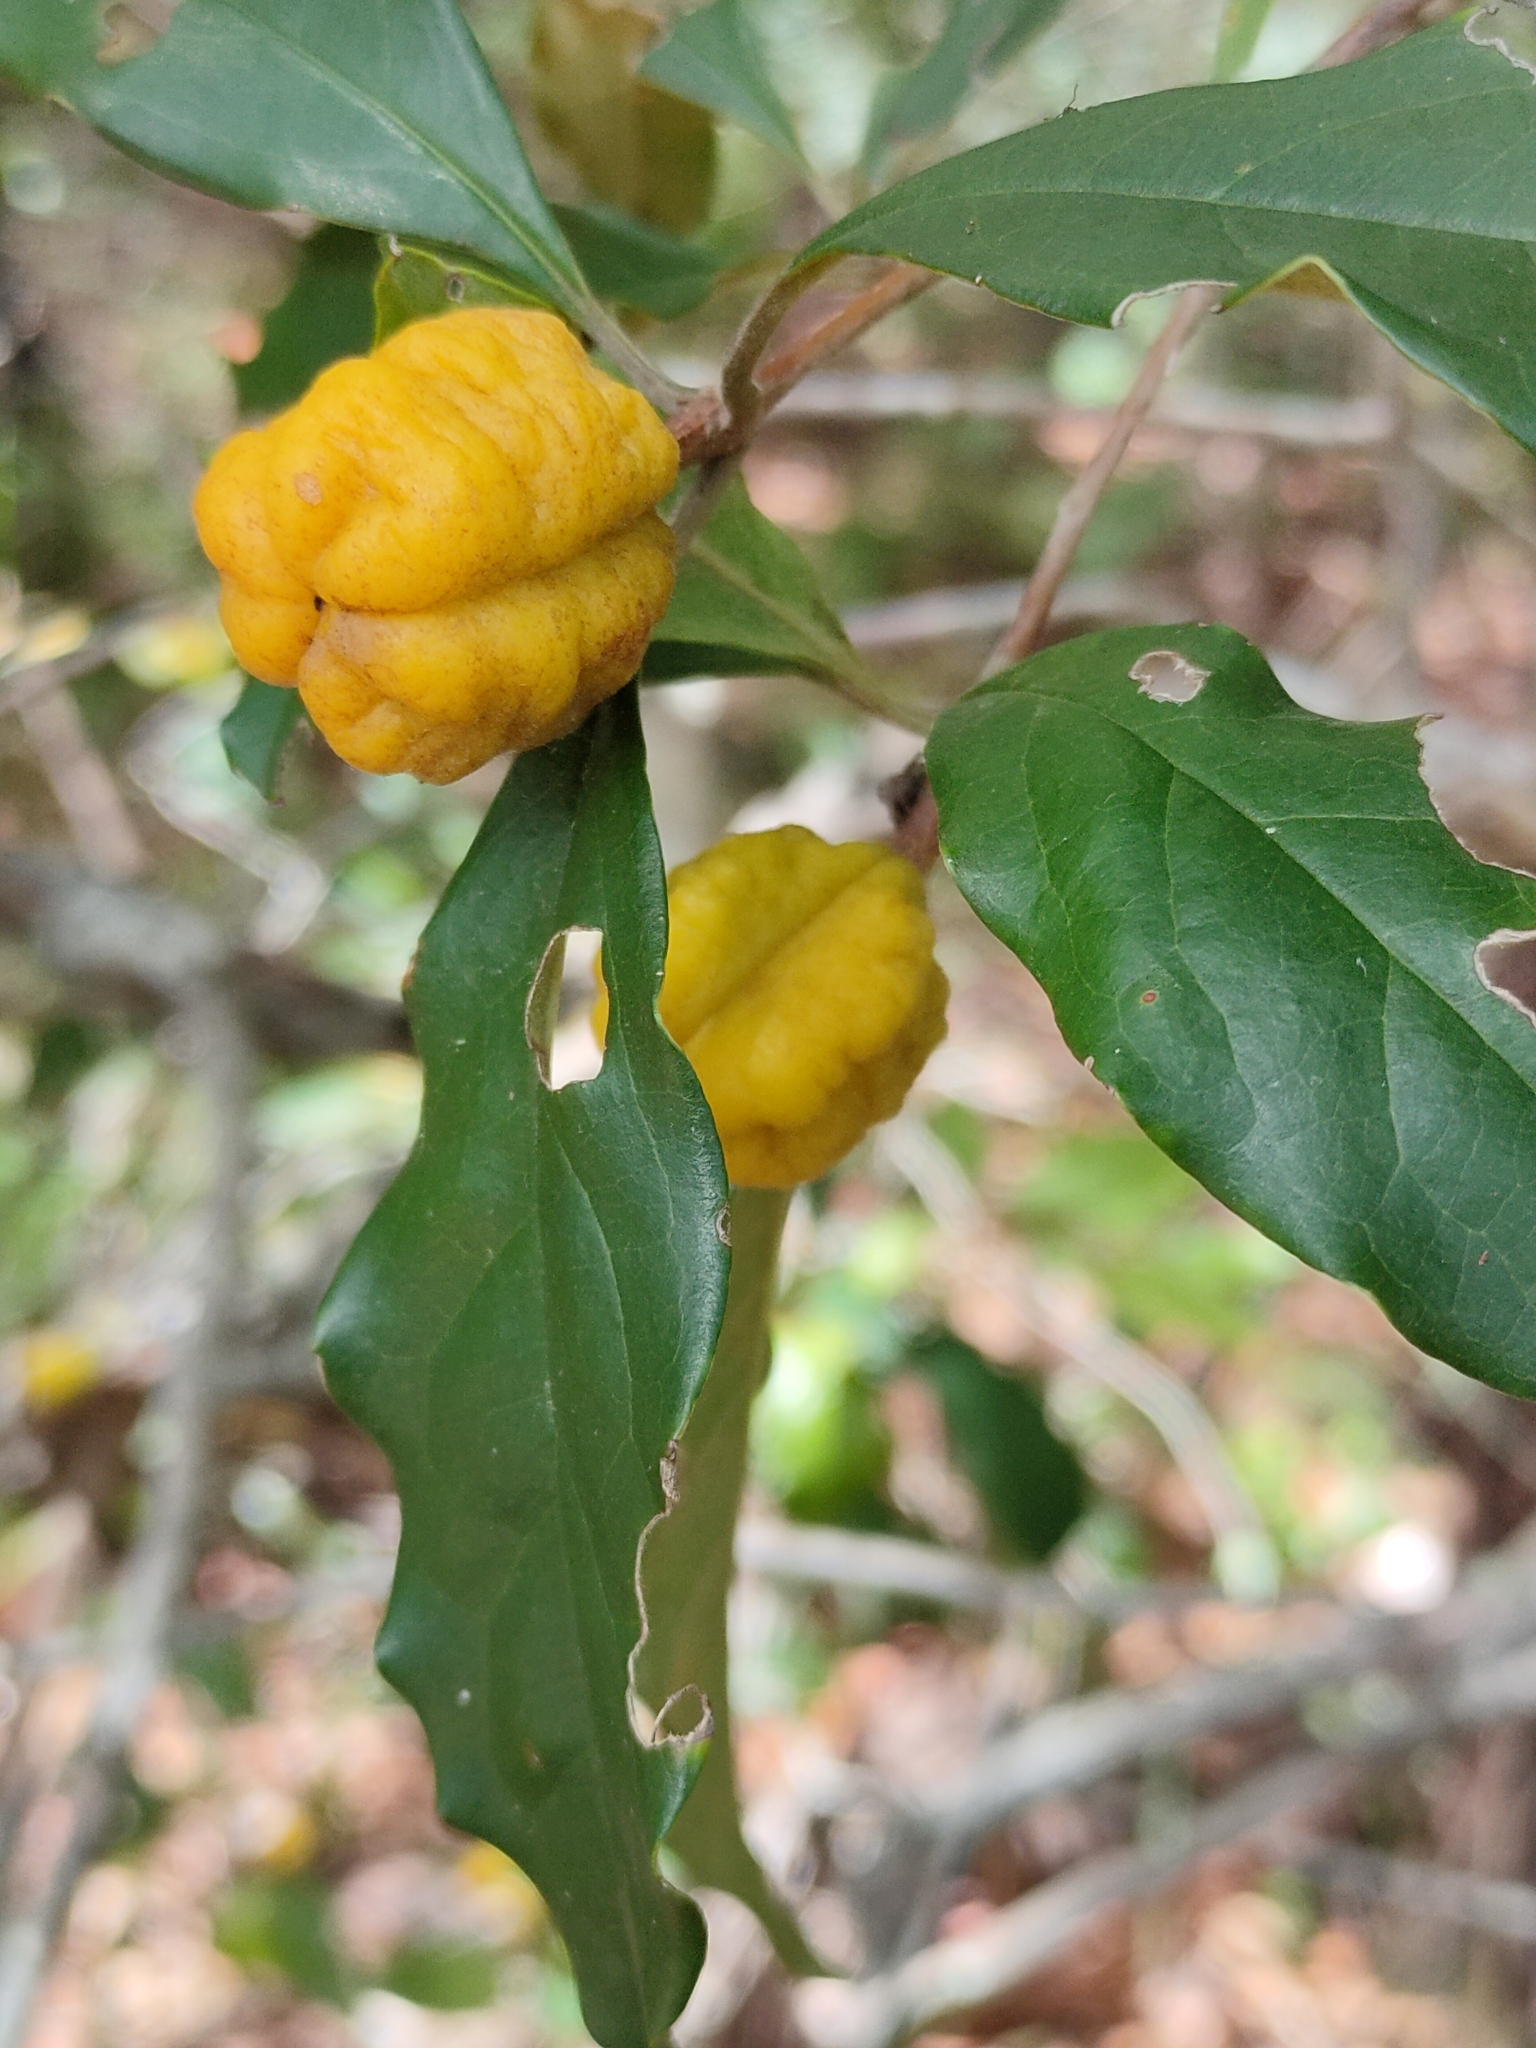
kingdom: Plantae
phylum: Tracheophyta
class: Magnoliopsida
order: Apiales
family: Pittosporaceae
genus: Pittosporum
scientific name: Pittosporum revolutum
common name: Brisbane-laurel
